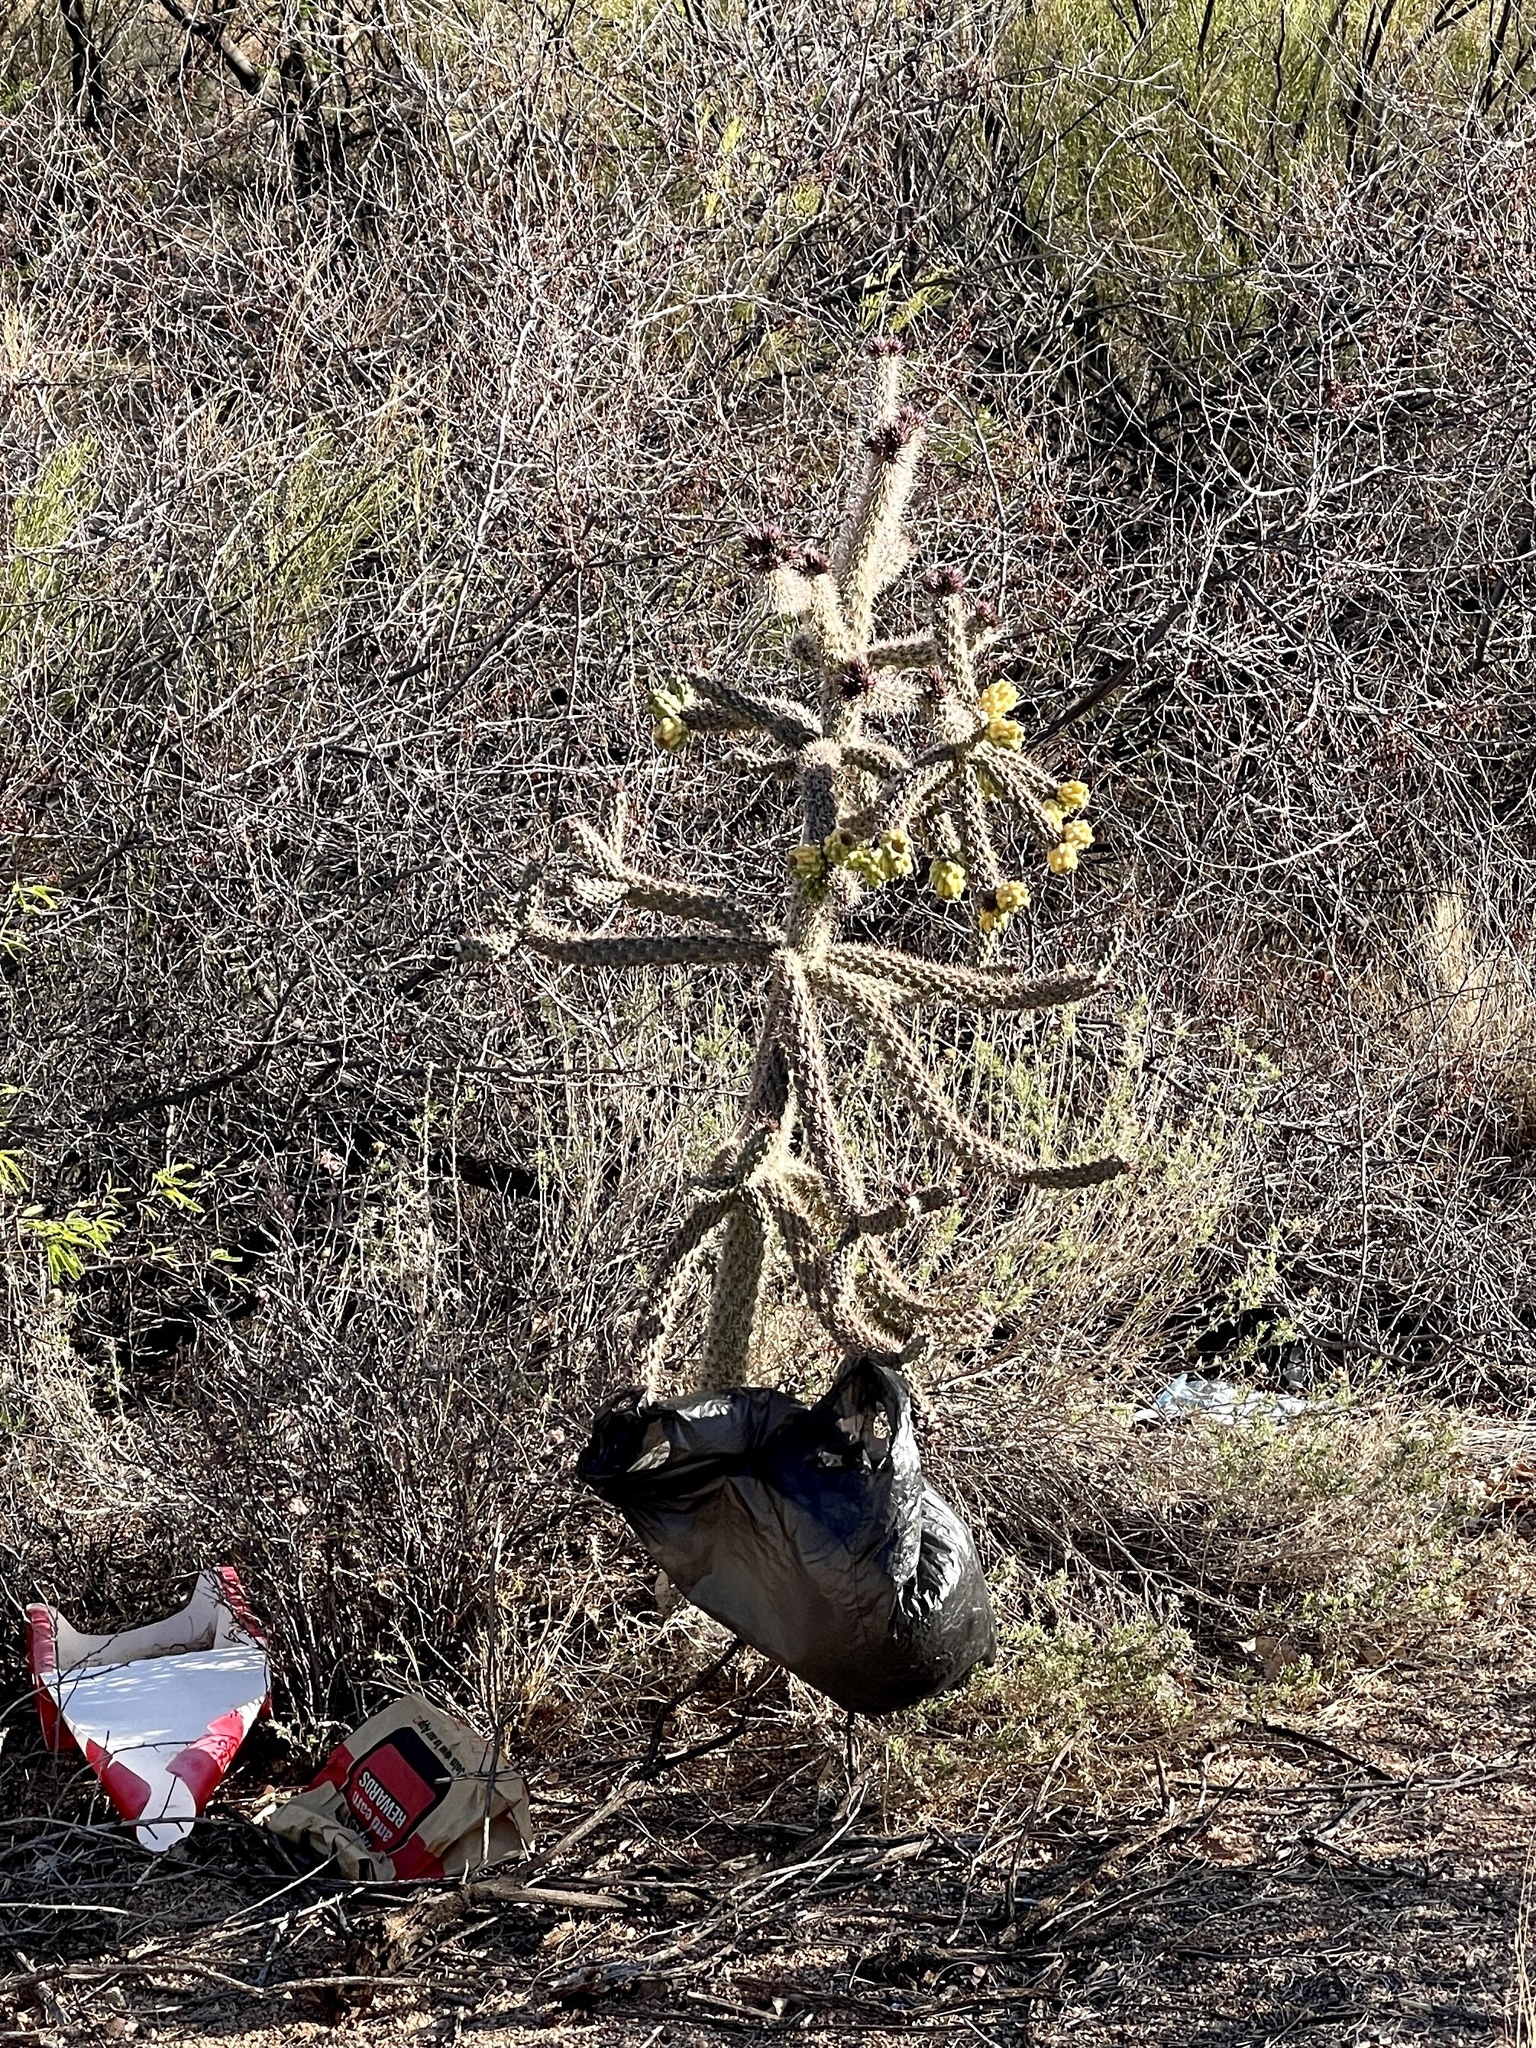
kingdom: Plantae
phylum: Tracheophyta
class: Magnoliopsida
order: Caryophyllales
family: Cactaceae
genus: Cylindropuntia
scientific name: Cylindropuntia imbricata
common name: Candelabrum cactus
